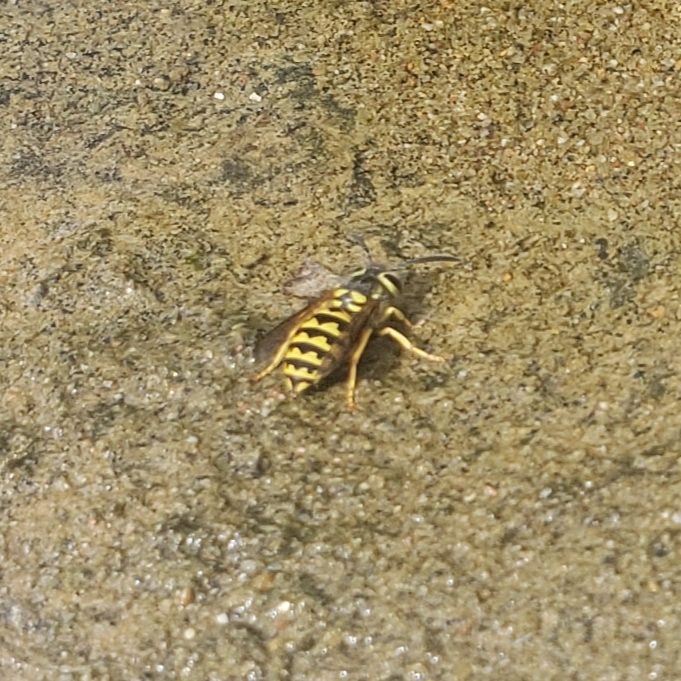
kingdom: Animalia
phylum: Arthropoda
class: Insecta
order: Hymenoptera
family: Vespidae
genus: Vespula
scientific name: Vespula pensylvanica
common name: Western yellowjacket
